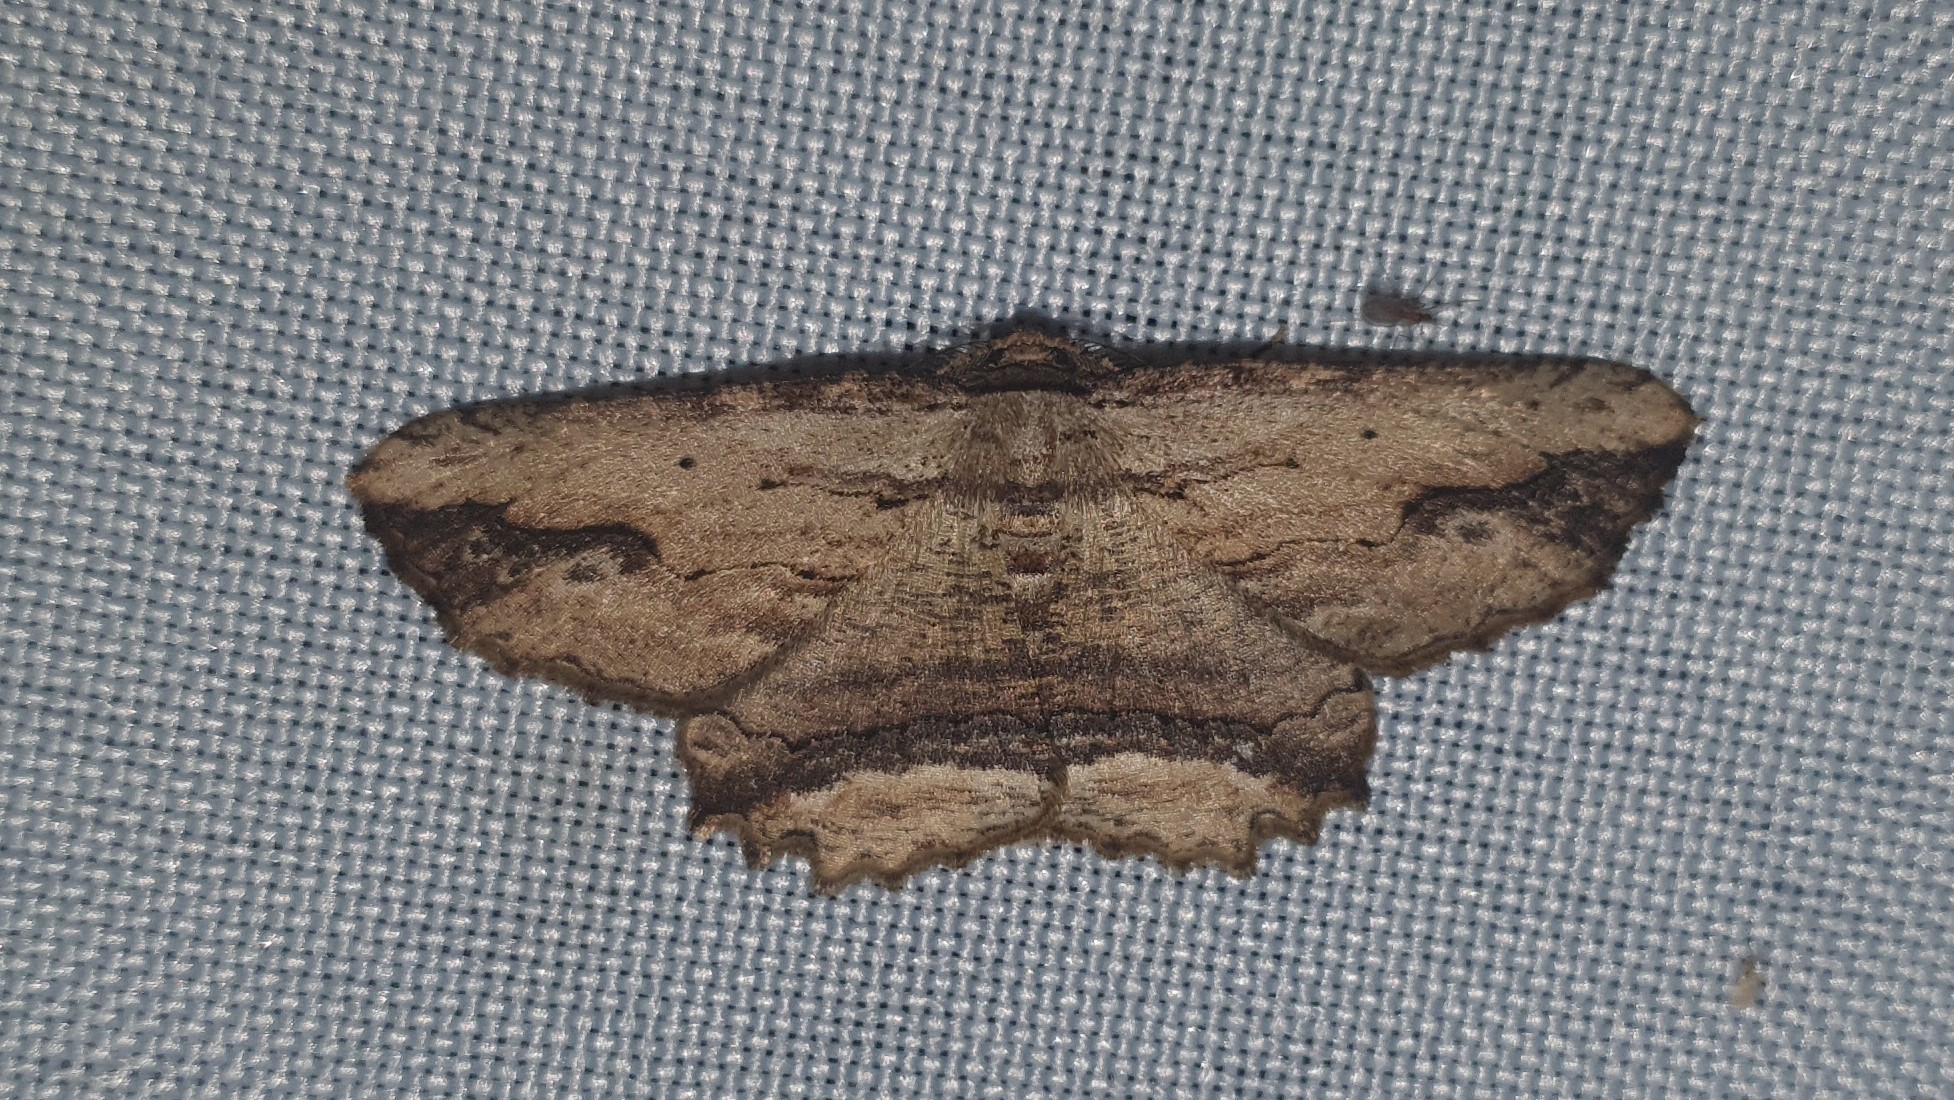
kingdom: Animalia
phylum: Arthropoda
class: Insecta
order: Lepidoptera
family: Geometridae
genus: Menophra
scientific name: Menophra abruptaria
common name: Waved umber
